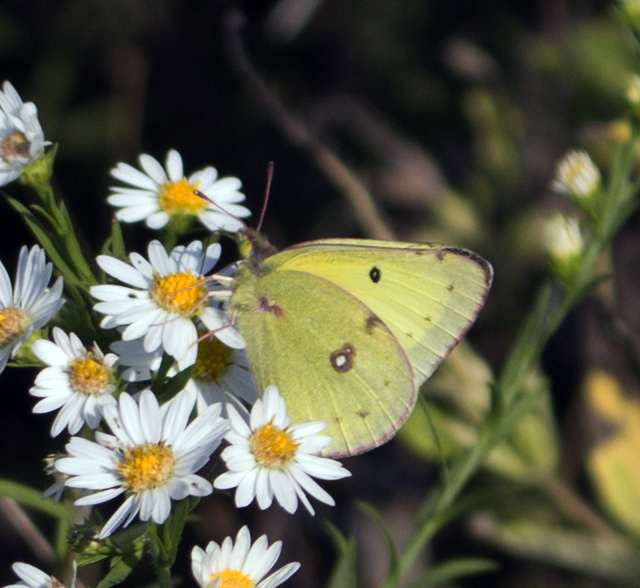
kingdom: Animalia
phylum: Arthropoda
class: Insecta
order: Lepidoptera
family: Pieridae
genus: Colias
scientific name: Colias philodice
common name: Clouded sulphur
